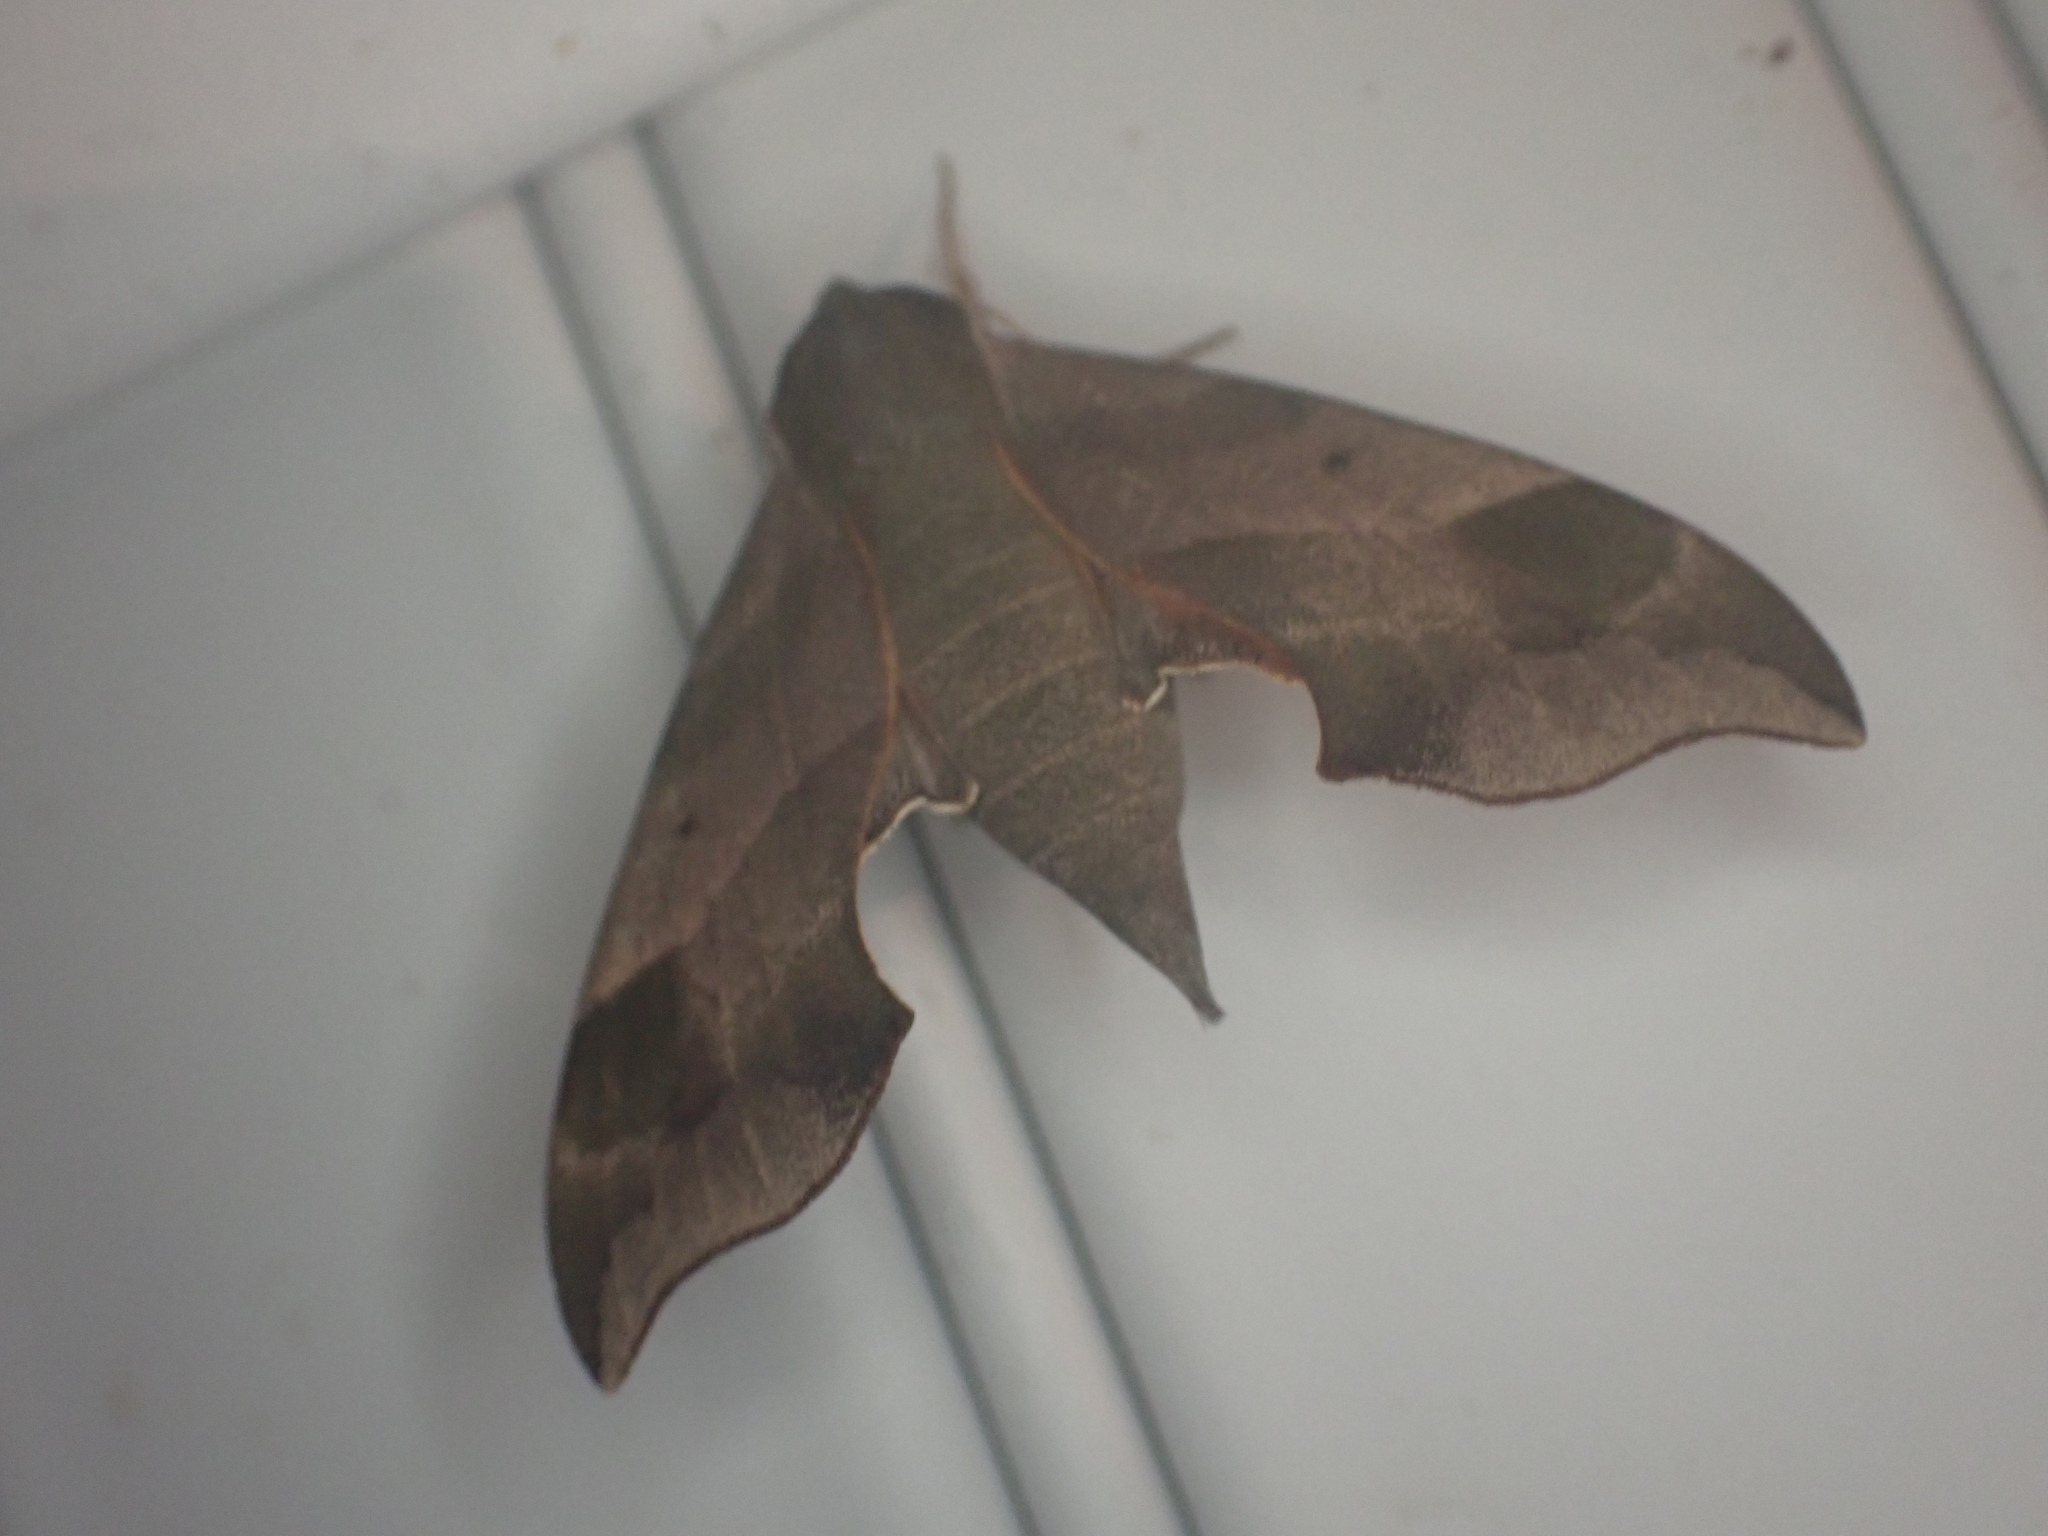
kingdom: Animalia
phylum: Arthropoda
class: Insecta
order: Lepidoptera
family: Sphingidae
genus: Darapsa
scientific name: Darapsa myron
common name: Hog sphinx
